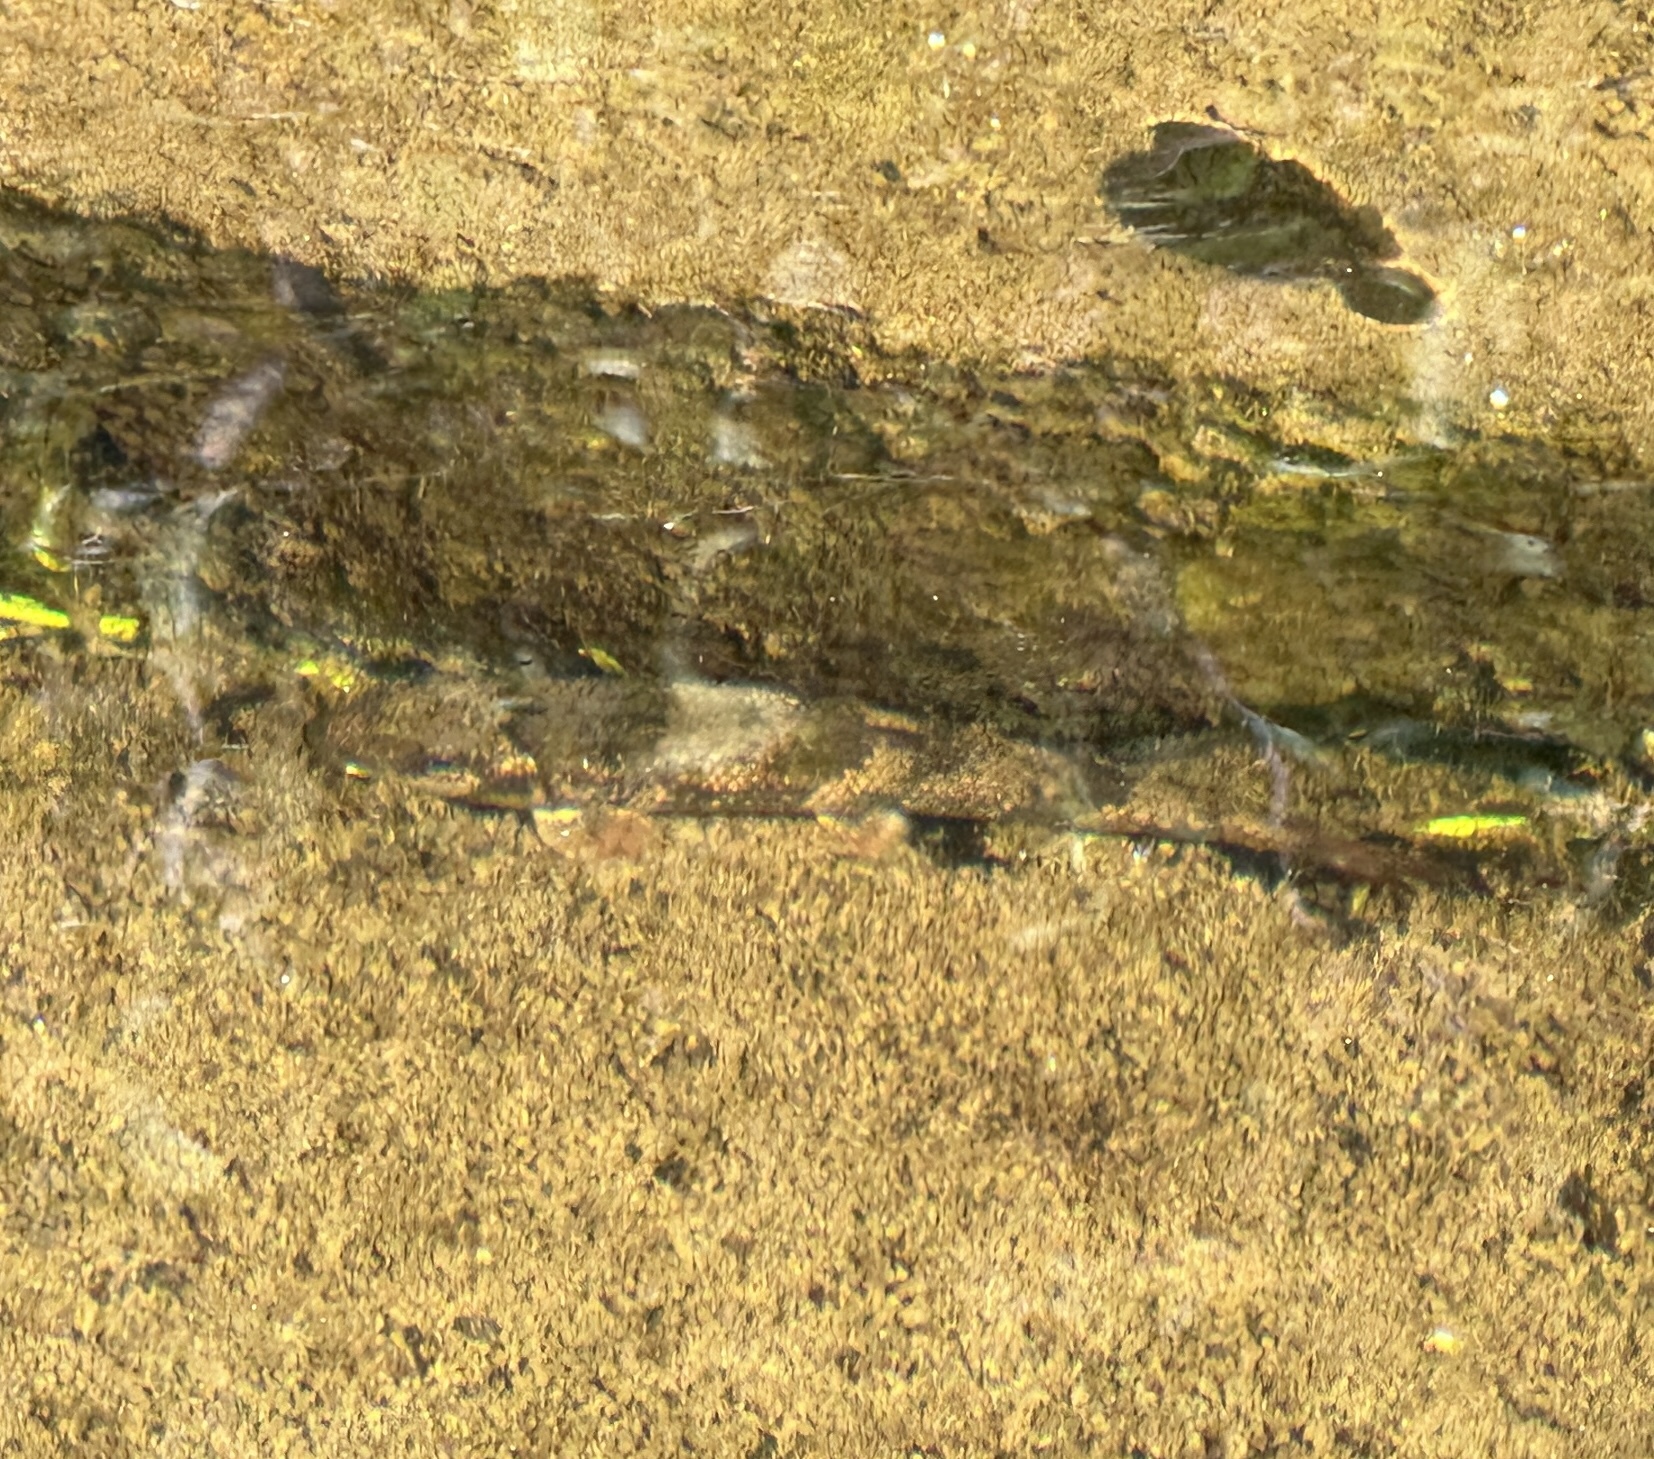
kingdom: Animalia
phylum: Chordata
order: Cypriniformes
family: Catostomidae
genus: Hypentelium
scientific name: Hypentelium etowanum
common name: Alabama hog sucker
